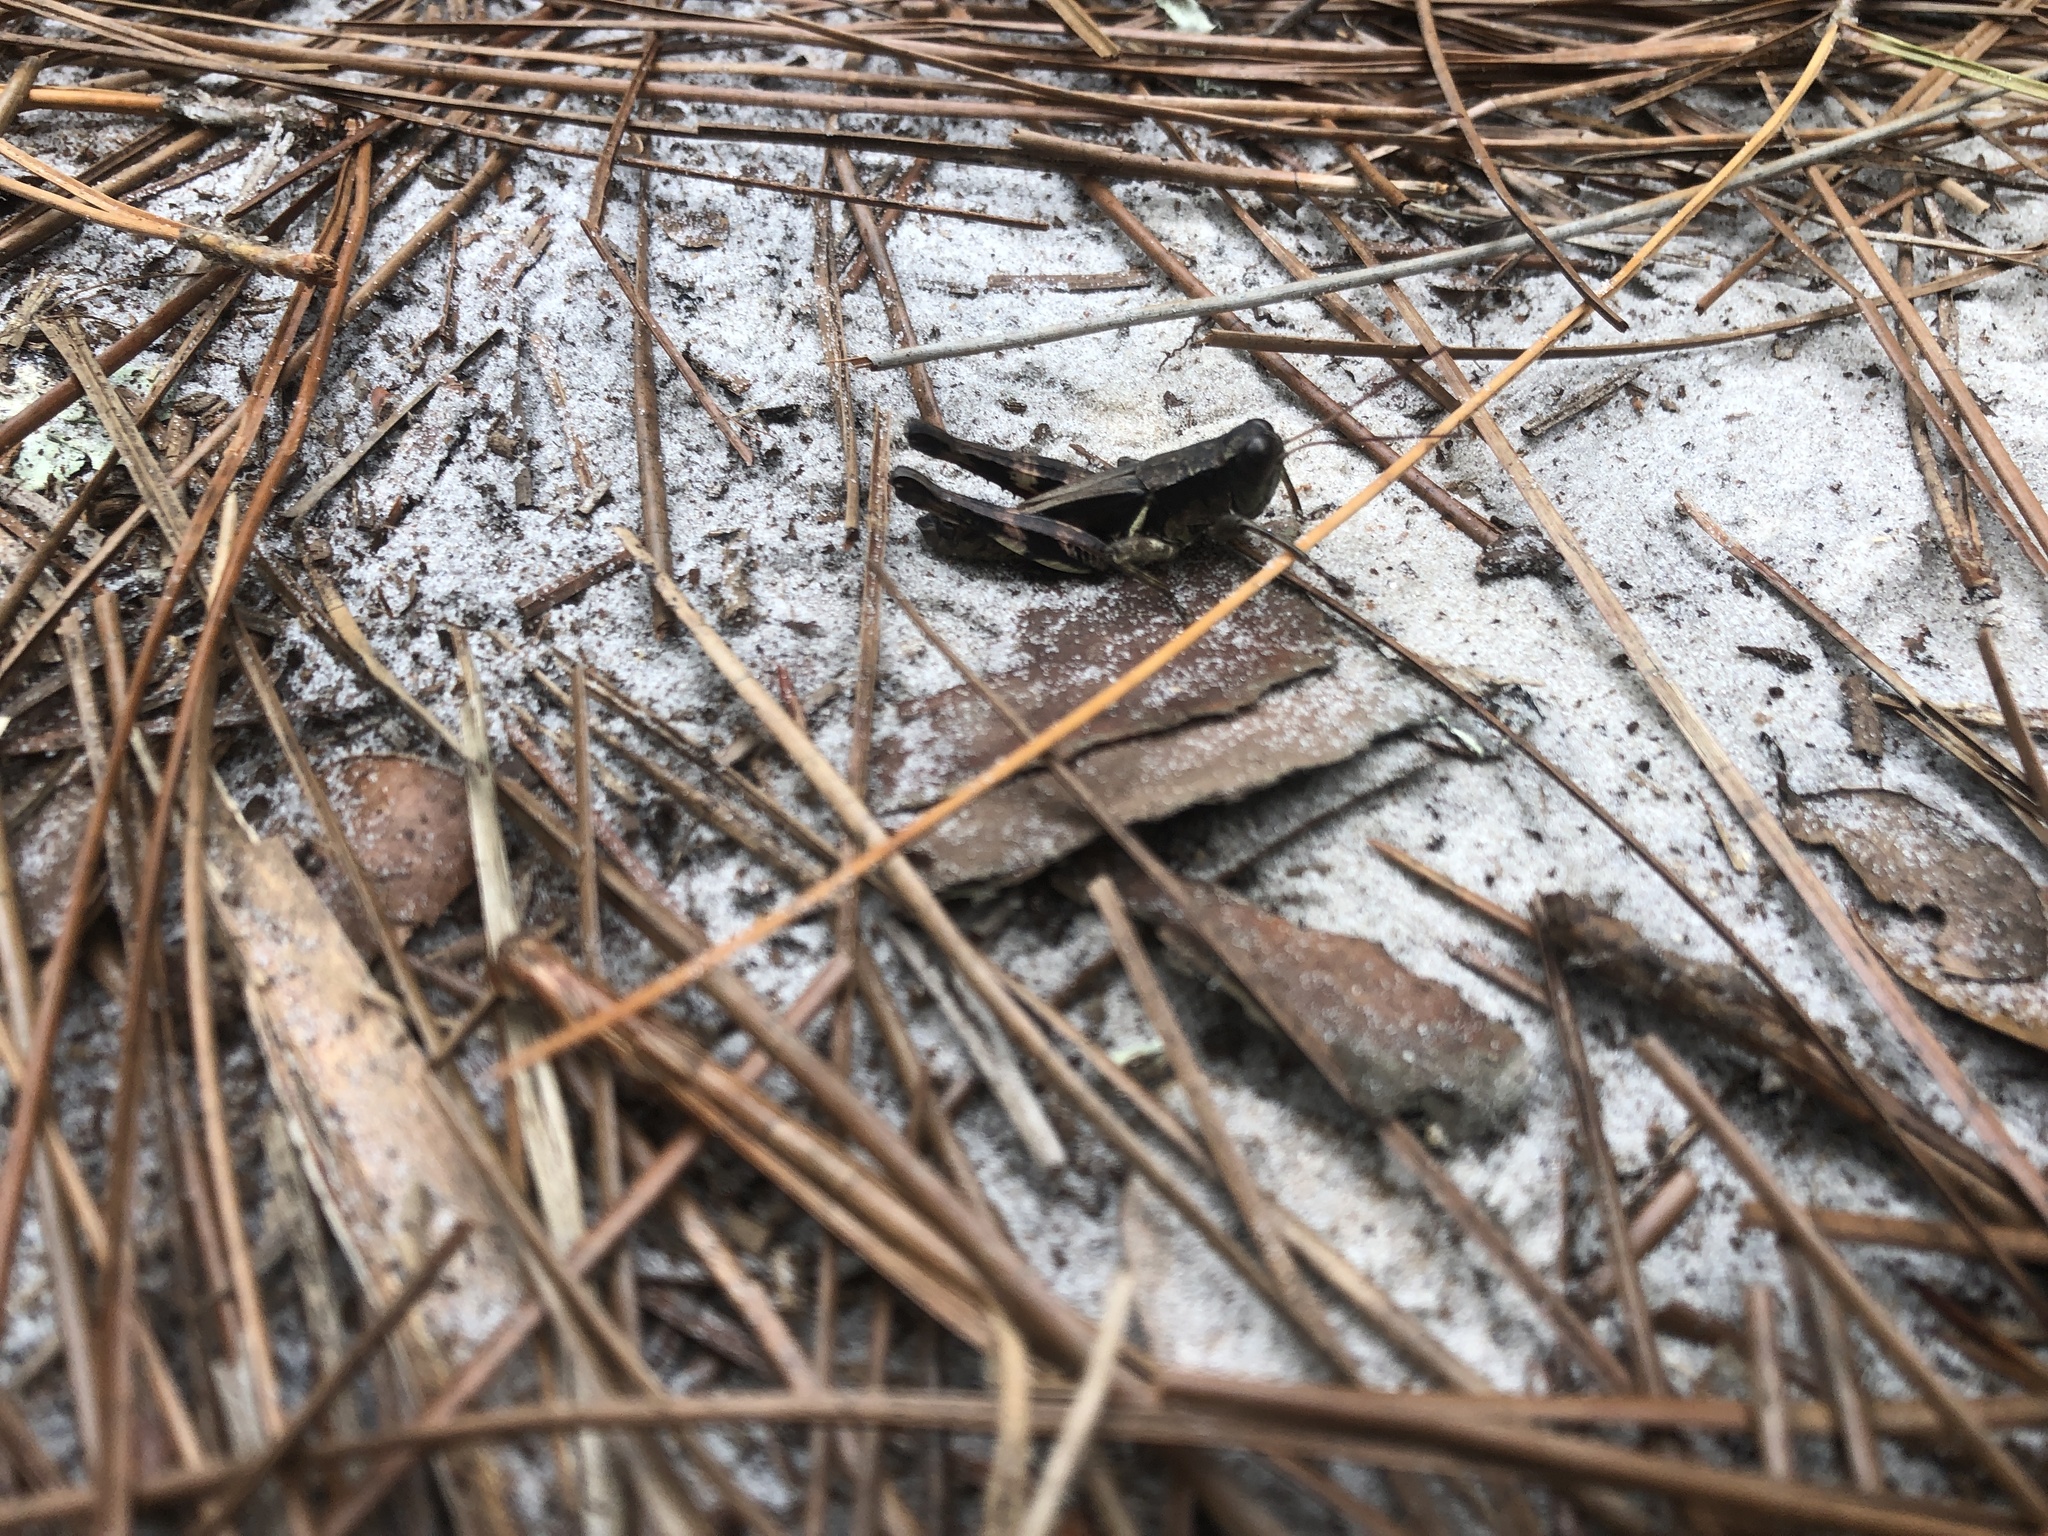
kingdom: Animalia
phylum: Arthropoda
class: Insecta
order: Orthoptera
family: Acrididae
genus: Melanoplus
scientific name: Melanoplus querneus
